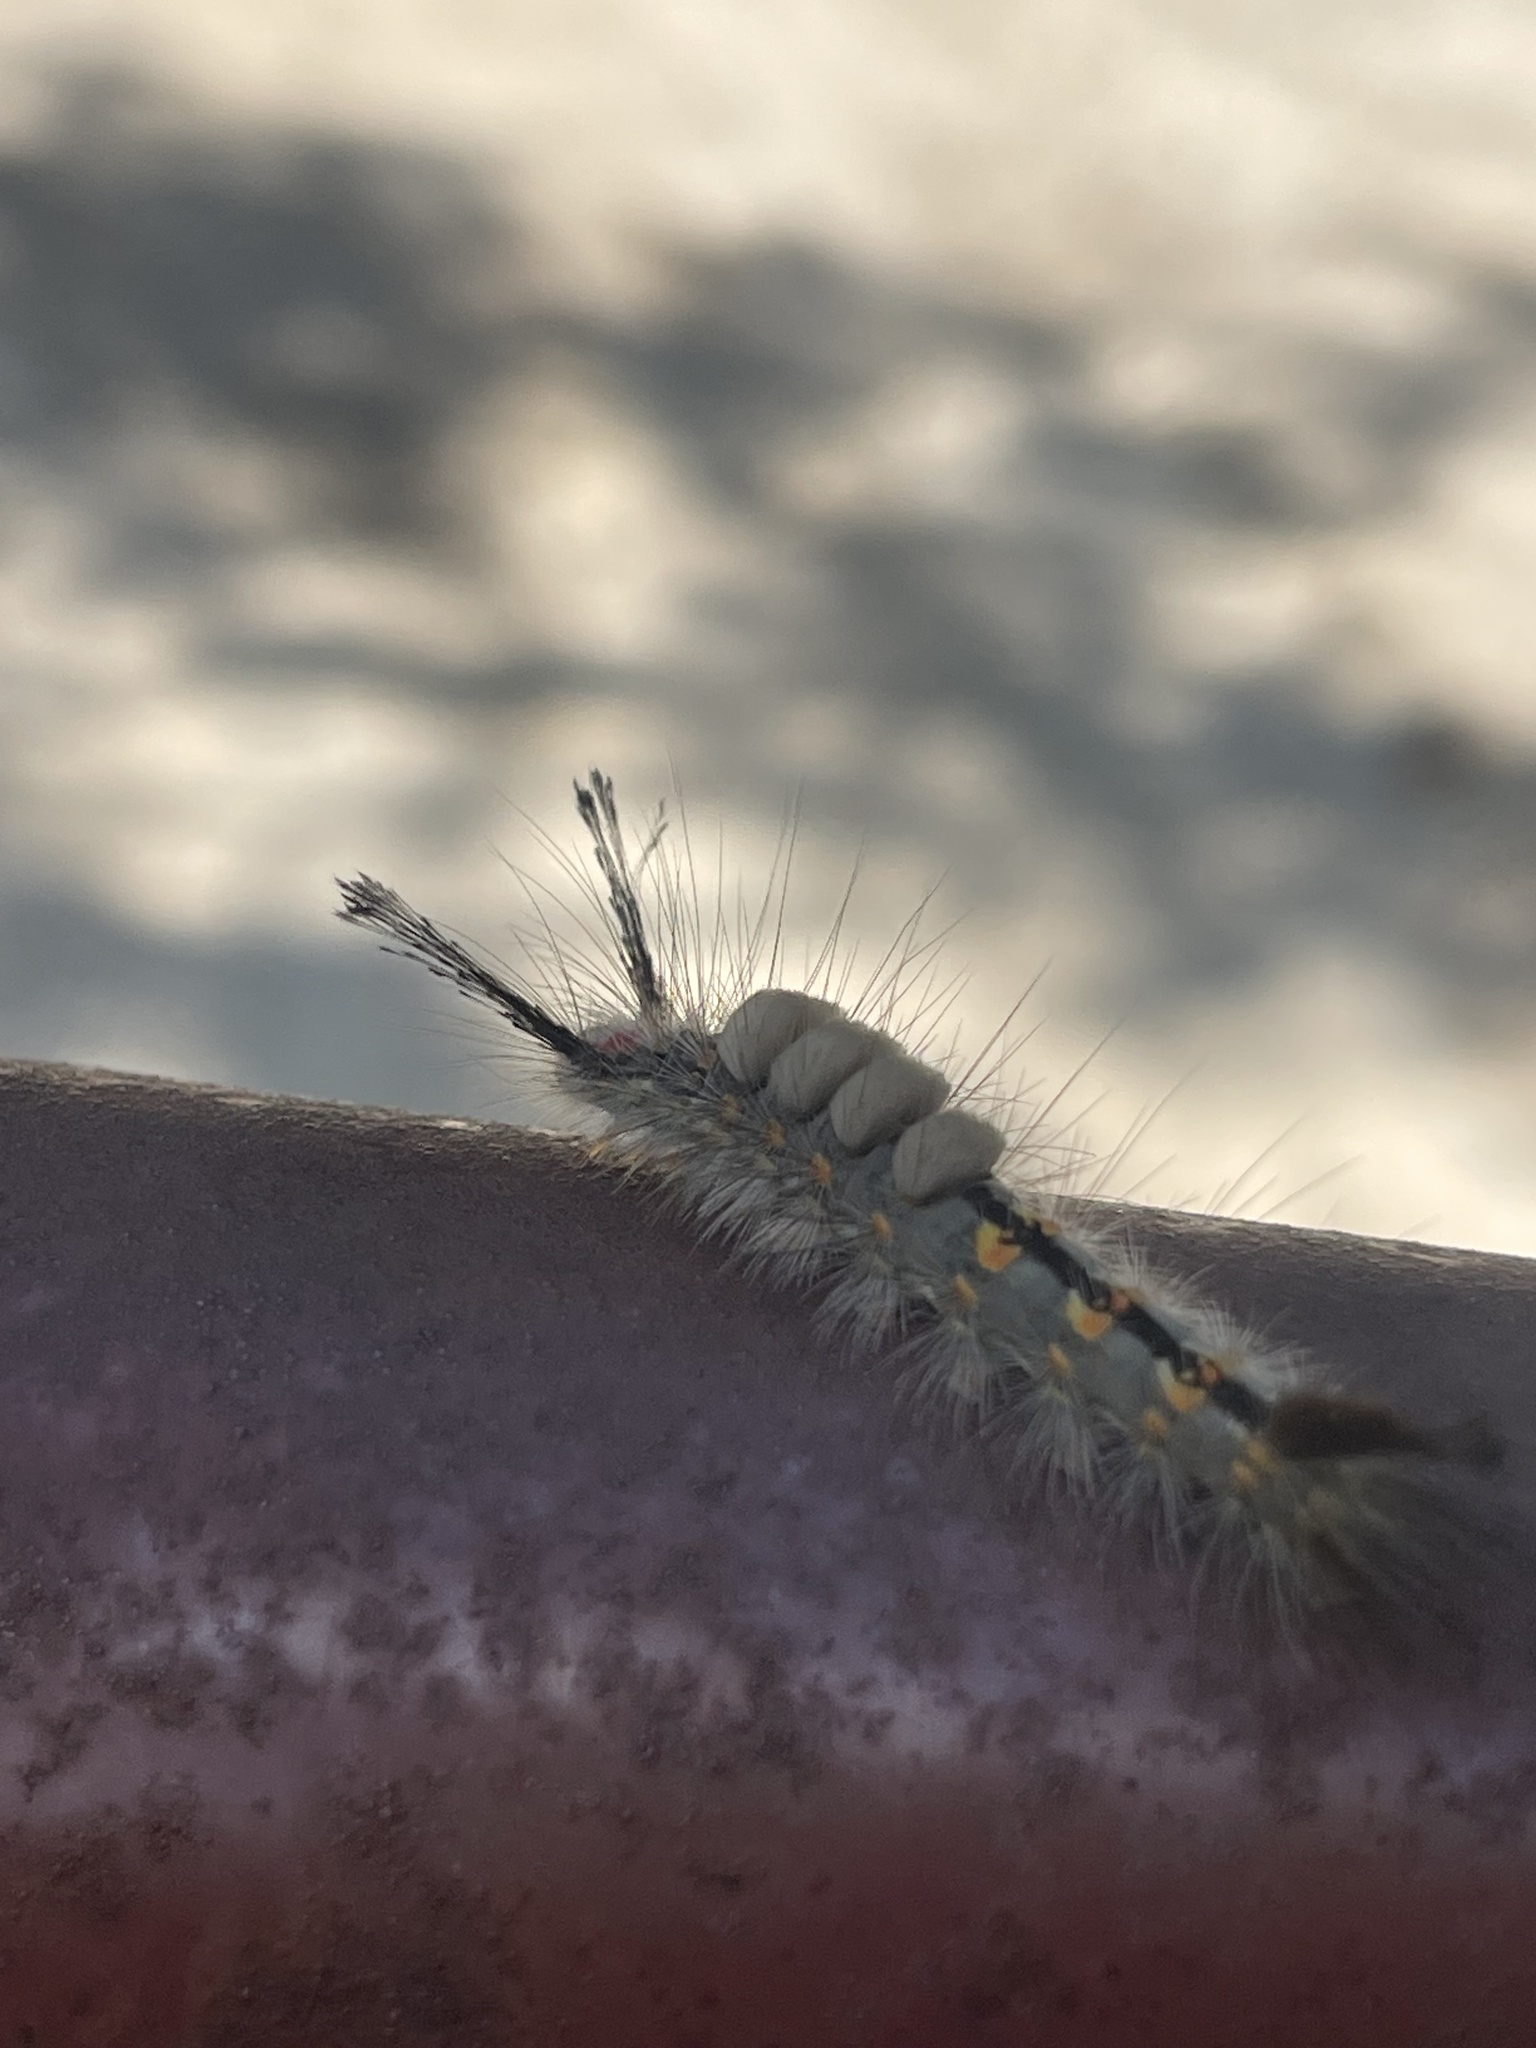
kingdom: Animalia
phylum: Arthropoda
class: Insecta
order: Lepidoptera
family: Erebidae
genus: Orgyia
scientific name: Orgyia detrita
